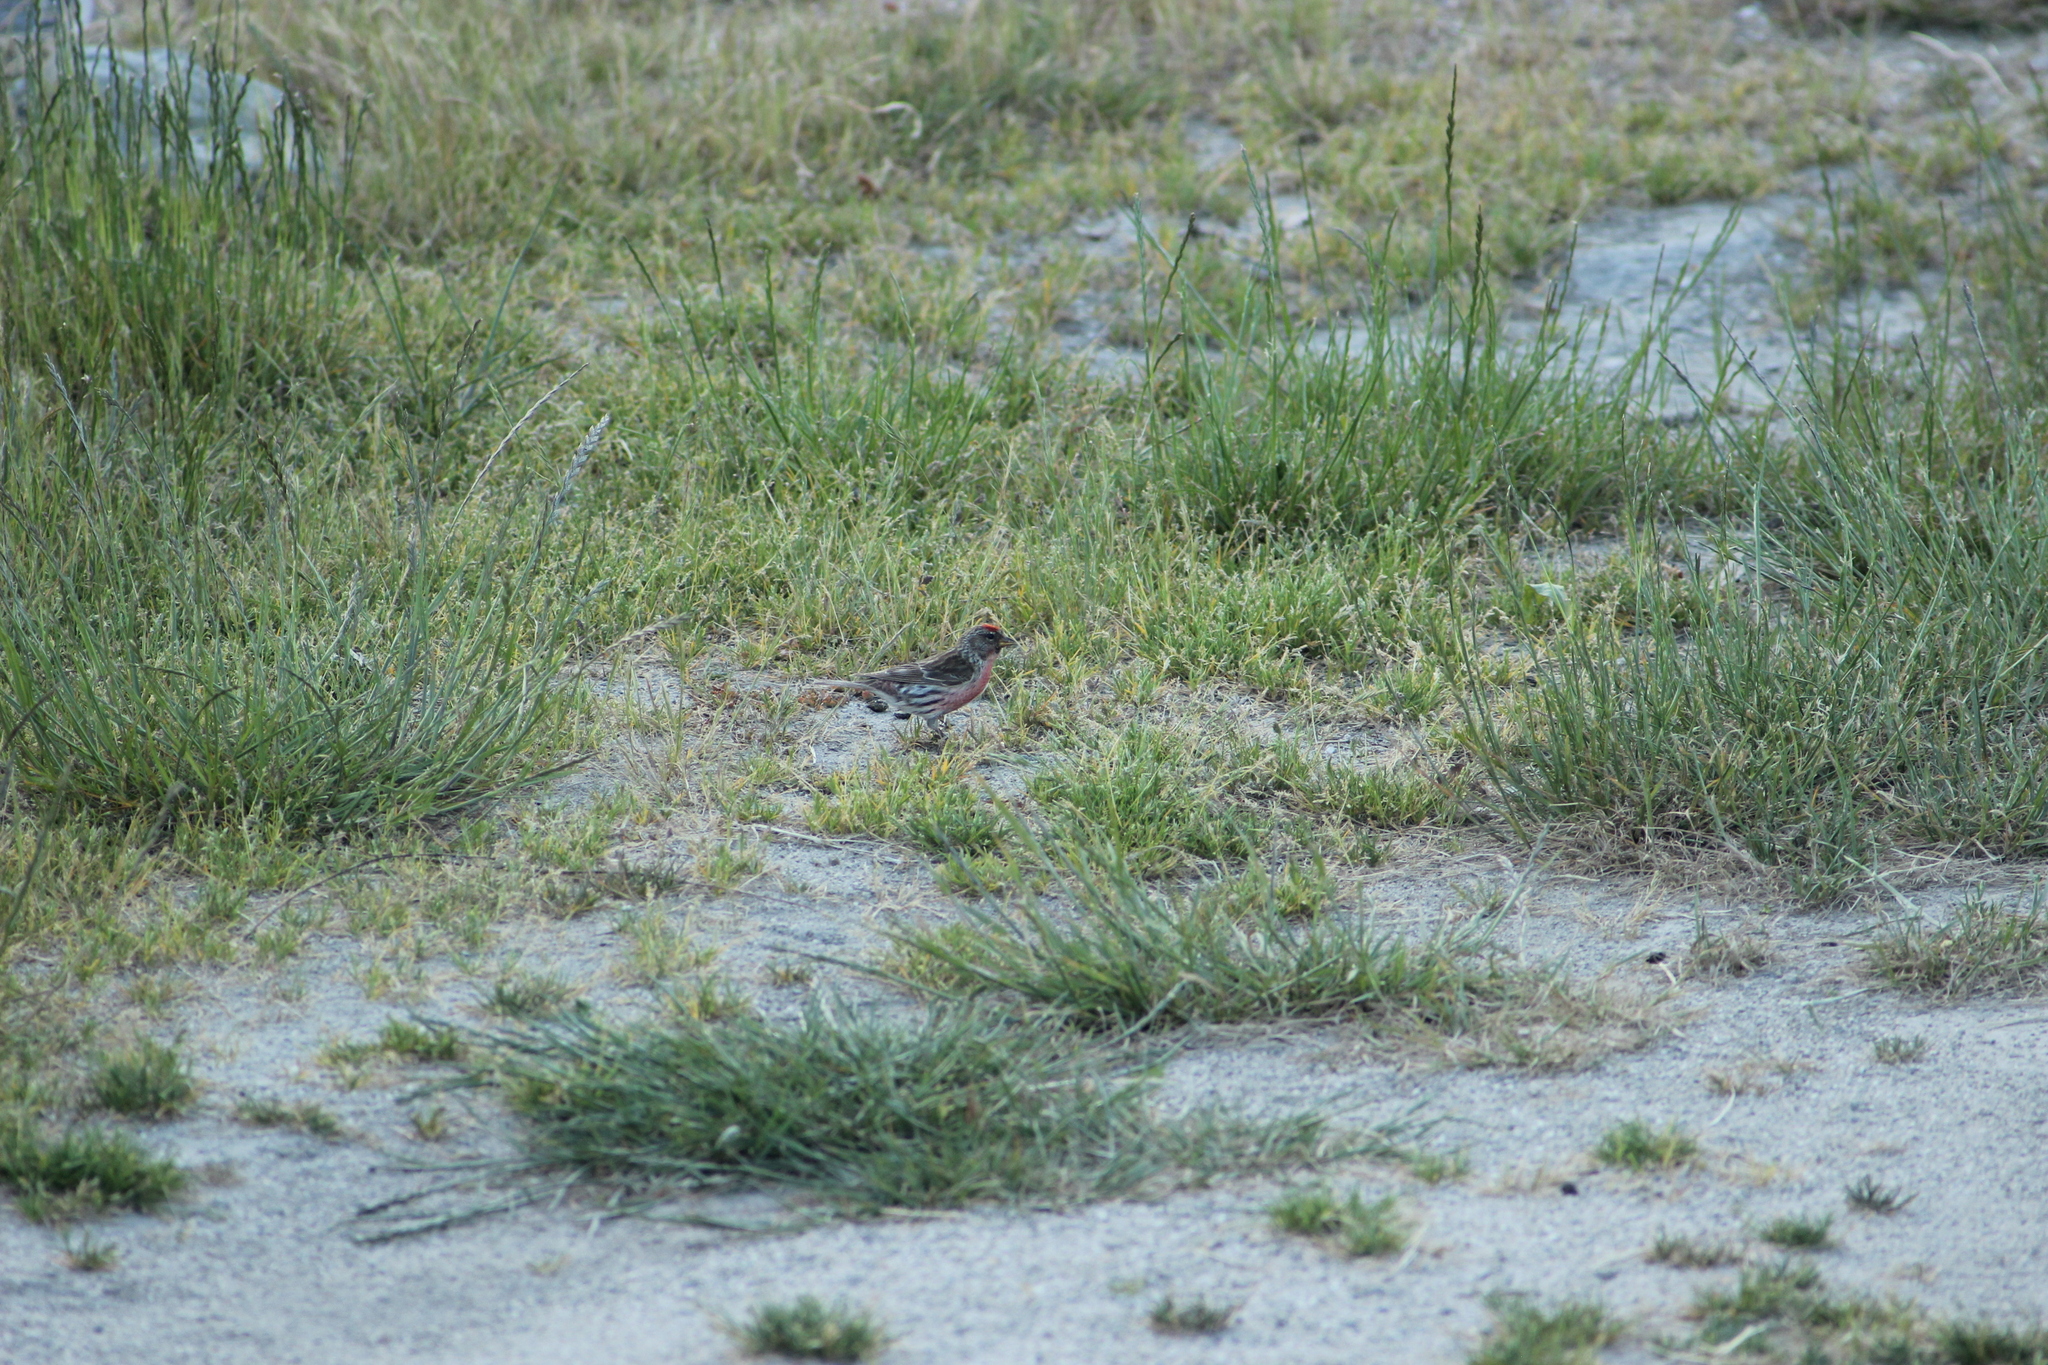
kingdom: Animalia
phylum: Chordata
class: Aves
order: Passeriformes
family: Fringillidae
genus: Acanthis
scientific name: Acanthis flammea
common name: Common redpoll
